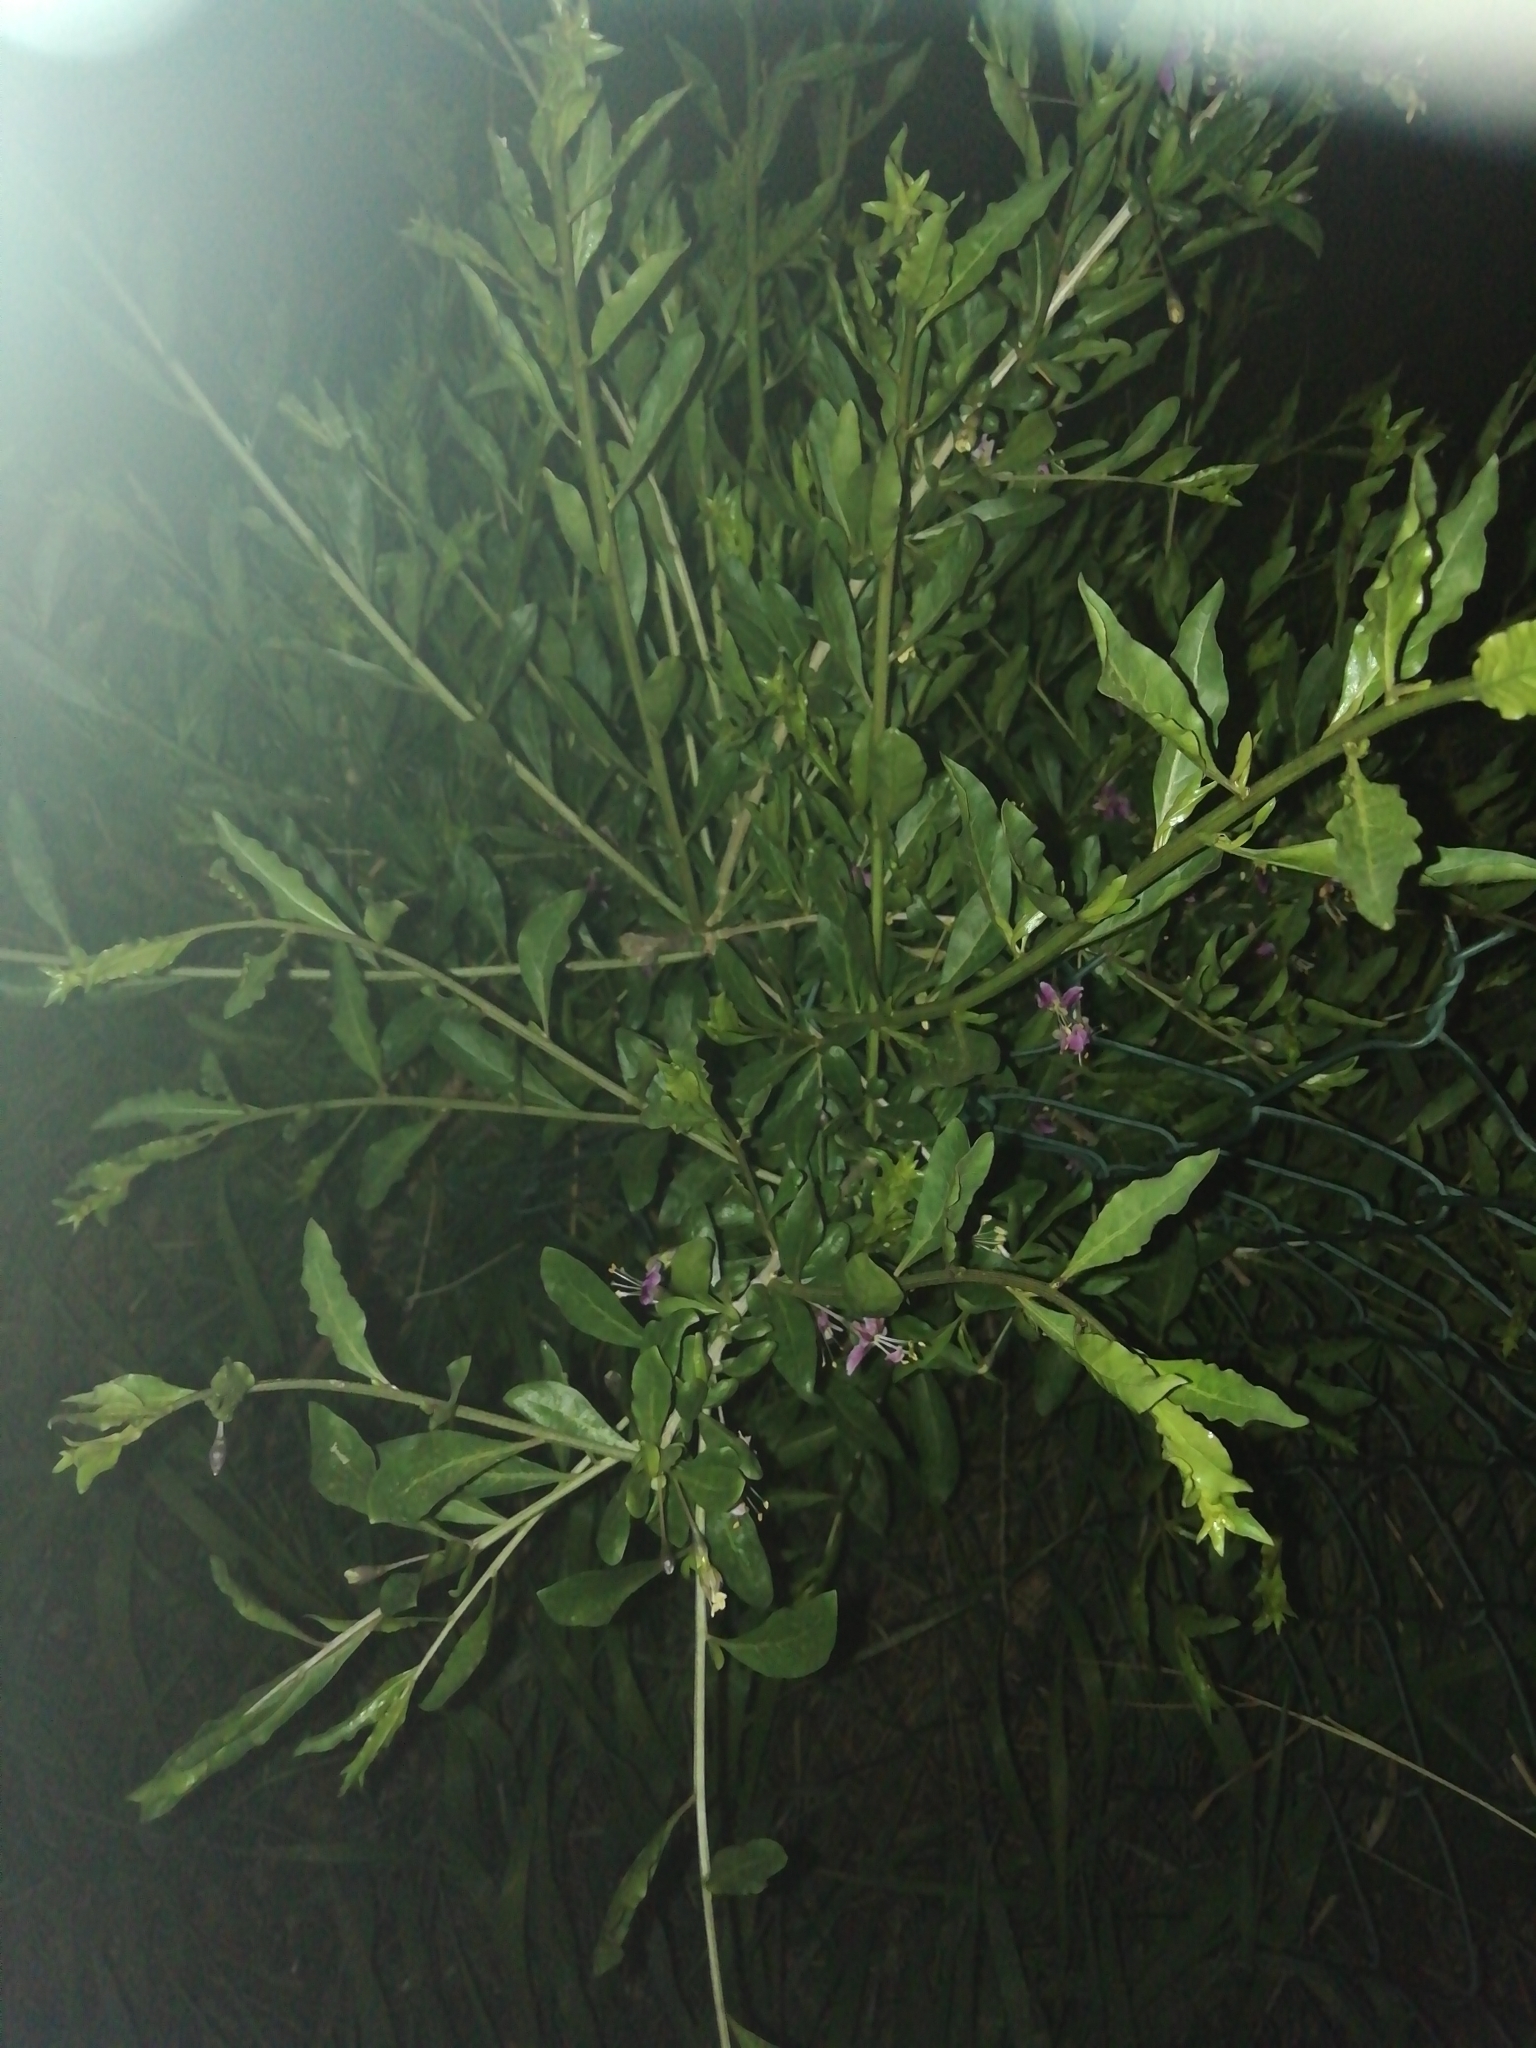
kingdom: Plantae
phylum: Tracheophyta
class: Magnoliopsida
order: Solanales
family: Solanaceae
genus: Lycium
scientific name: Lycium barbarum
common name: Duke of argyll's teaplant
